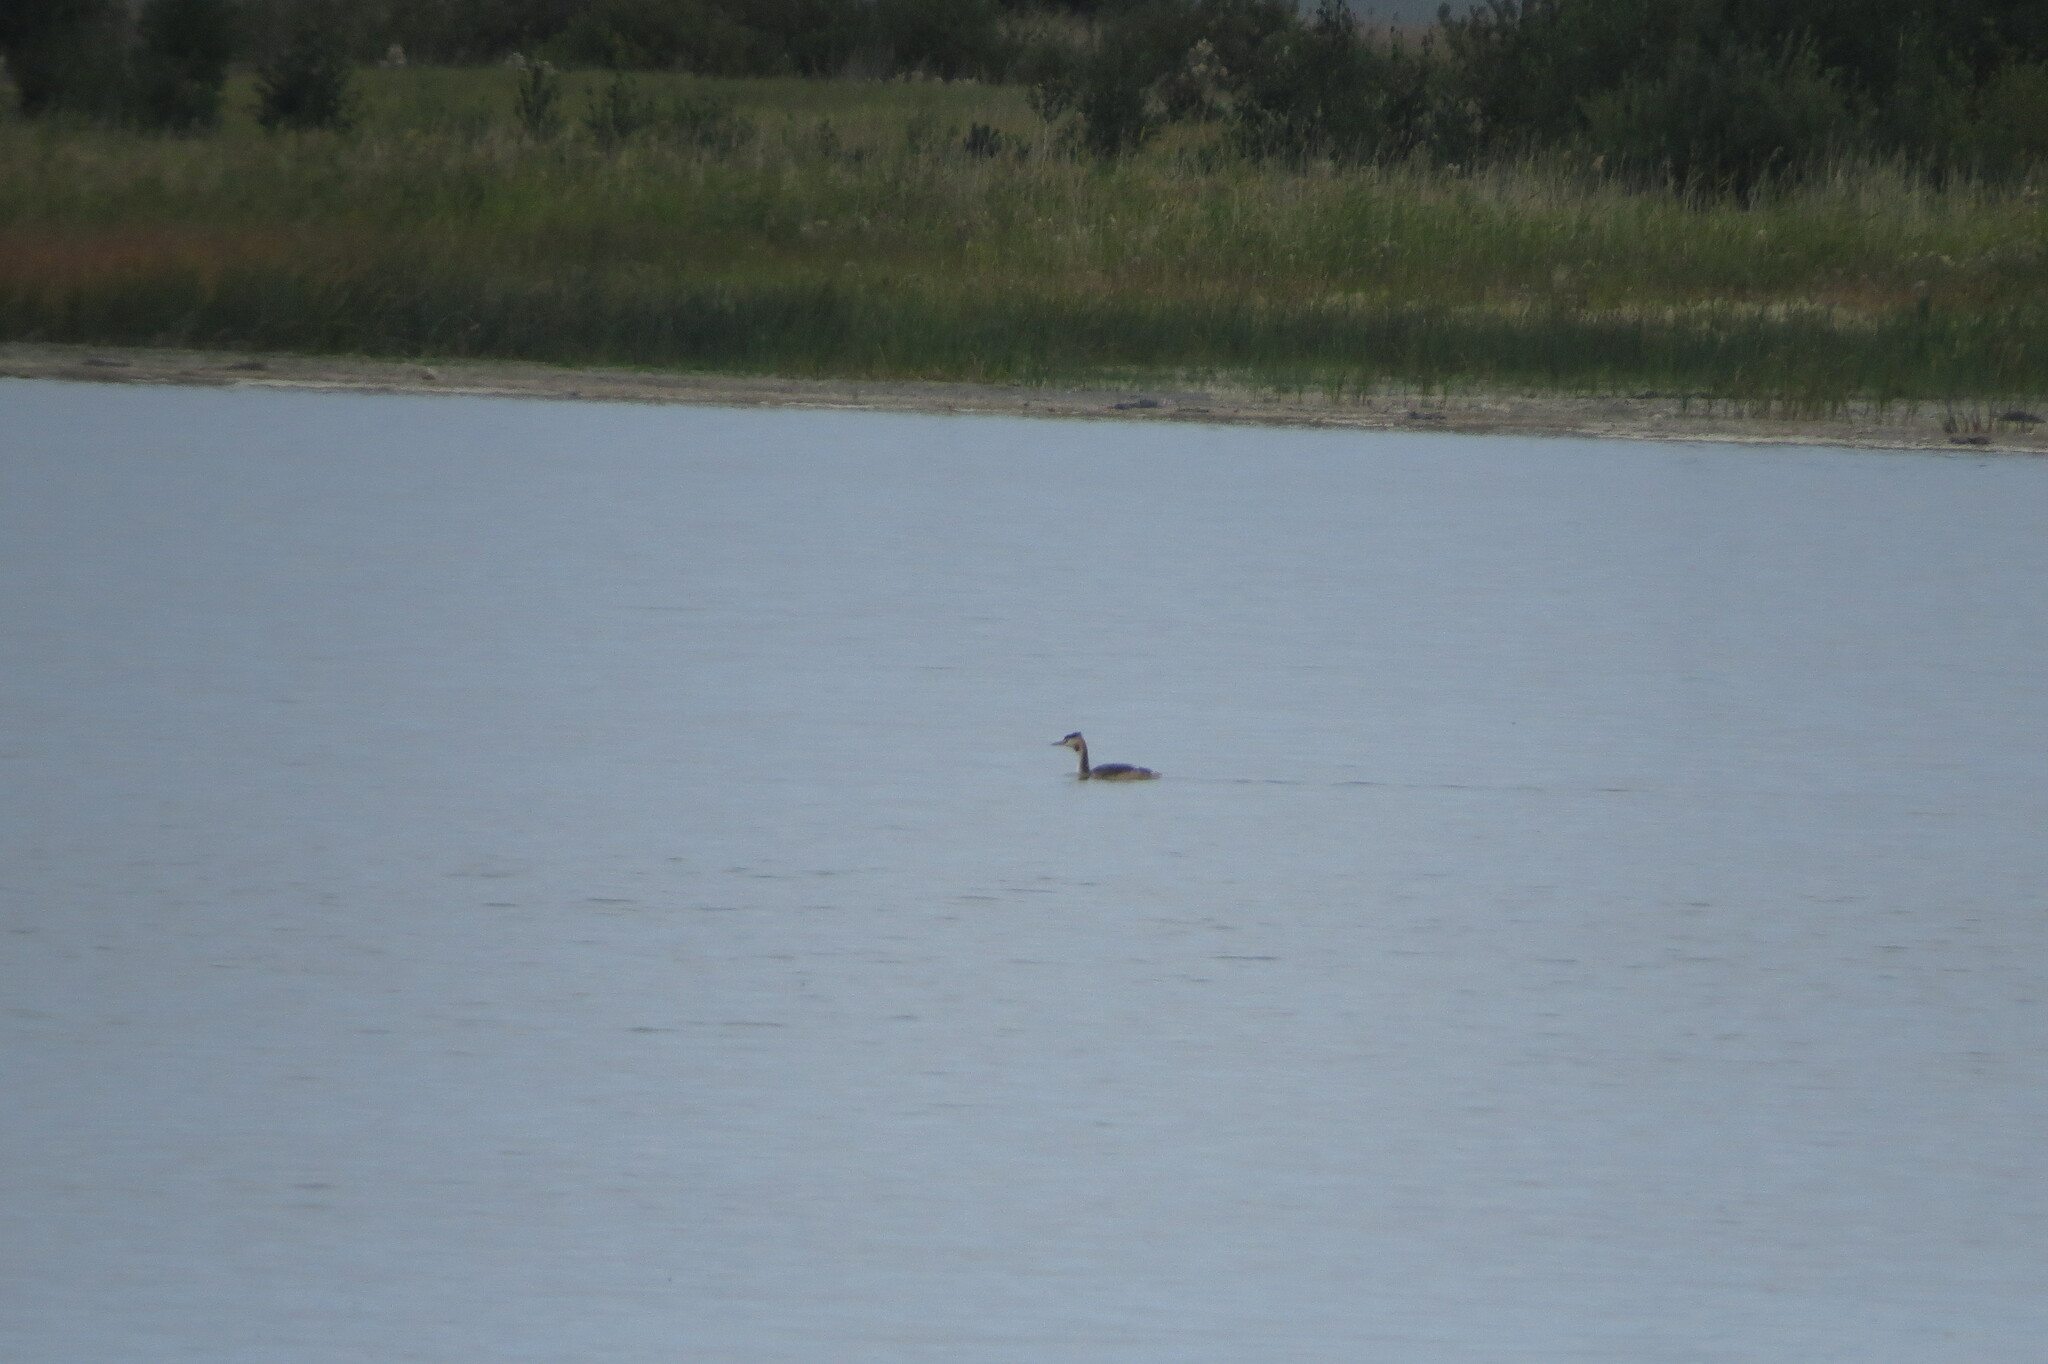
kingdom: Animalia
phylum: Chordata
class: Aves
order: Podicipediformes
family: Podicipedidae
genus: Podiceps
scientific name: Podiceps cristatus
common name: Great crested grebe
